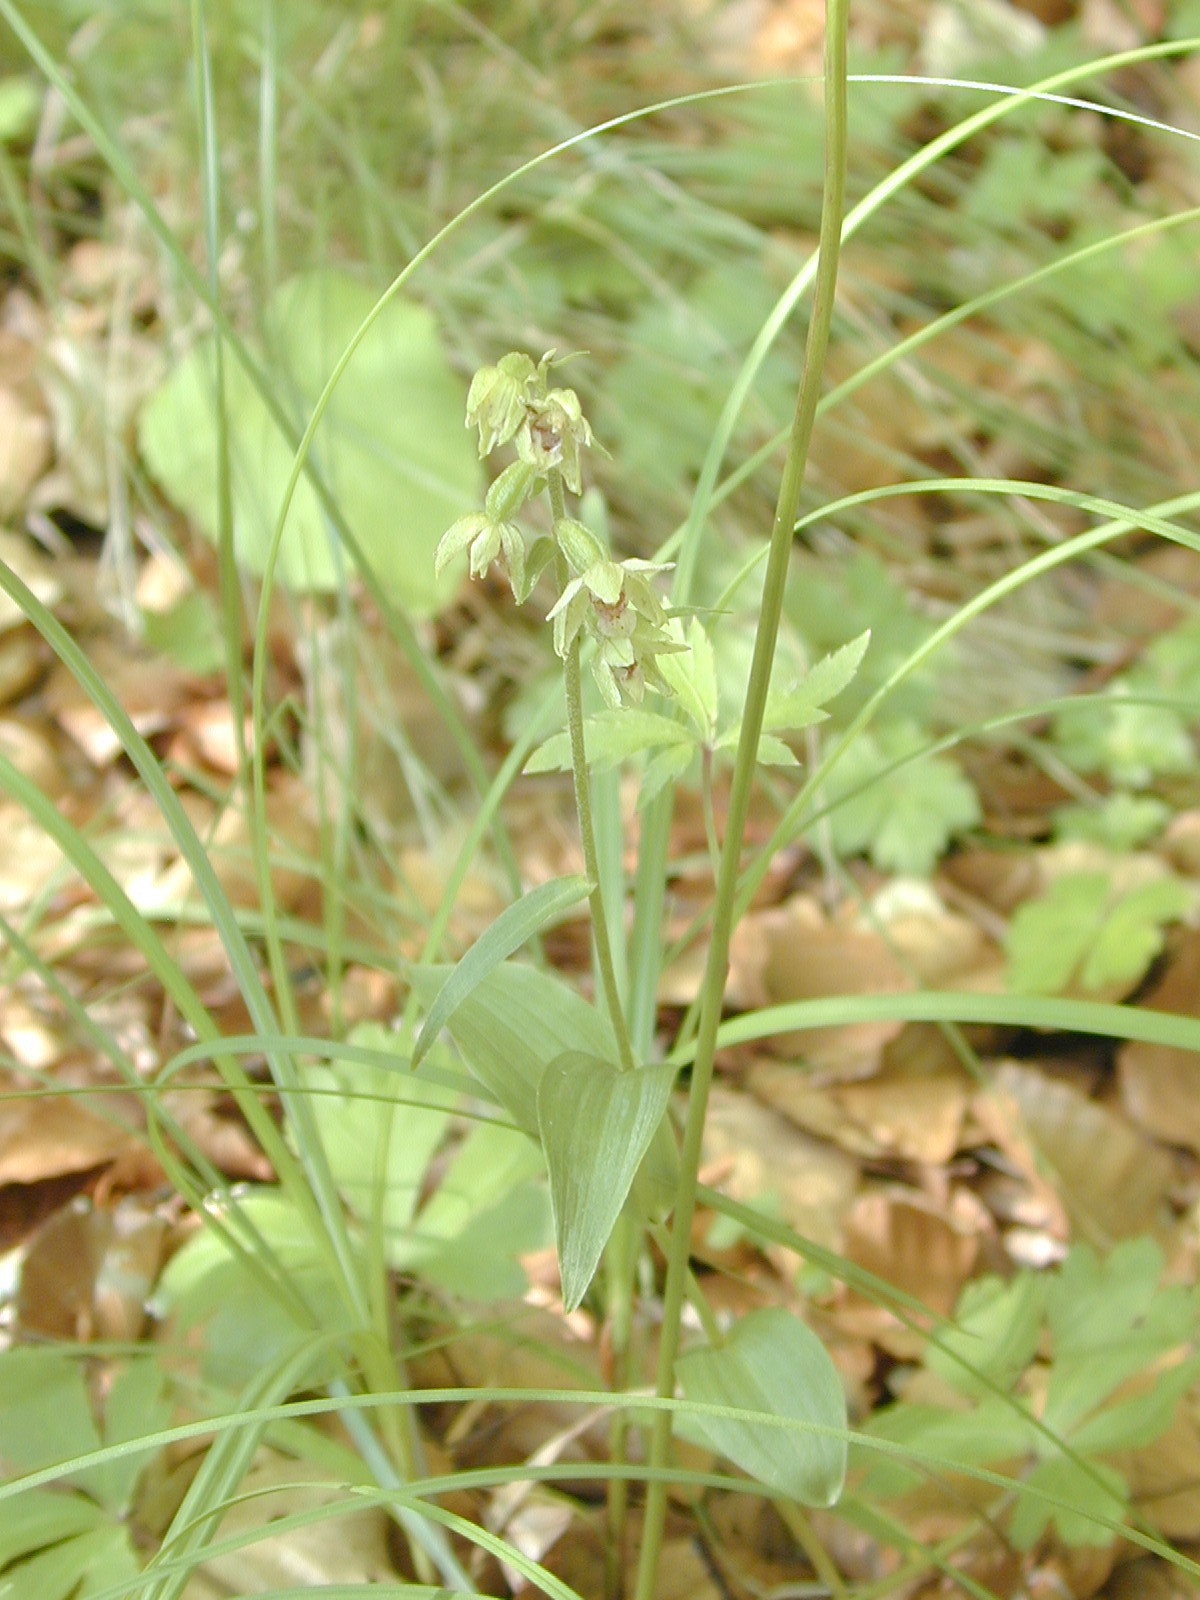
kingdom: Plantae
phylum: Tracheophyta
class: Liliopsida
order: Asparagales
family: Orchidaceae
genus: Epipactis
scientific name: Epipactis muelleri
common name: Mueller's epipactis
